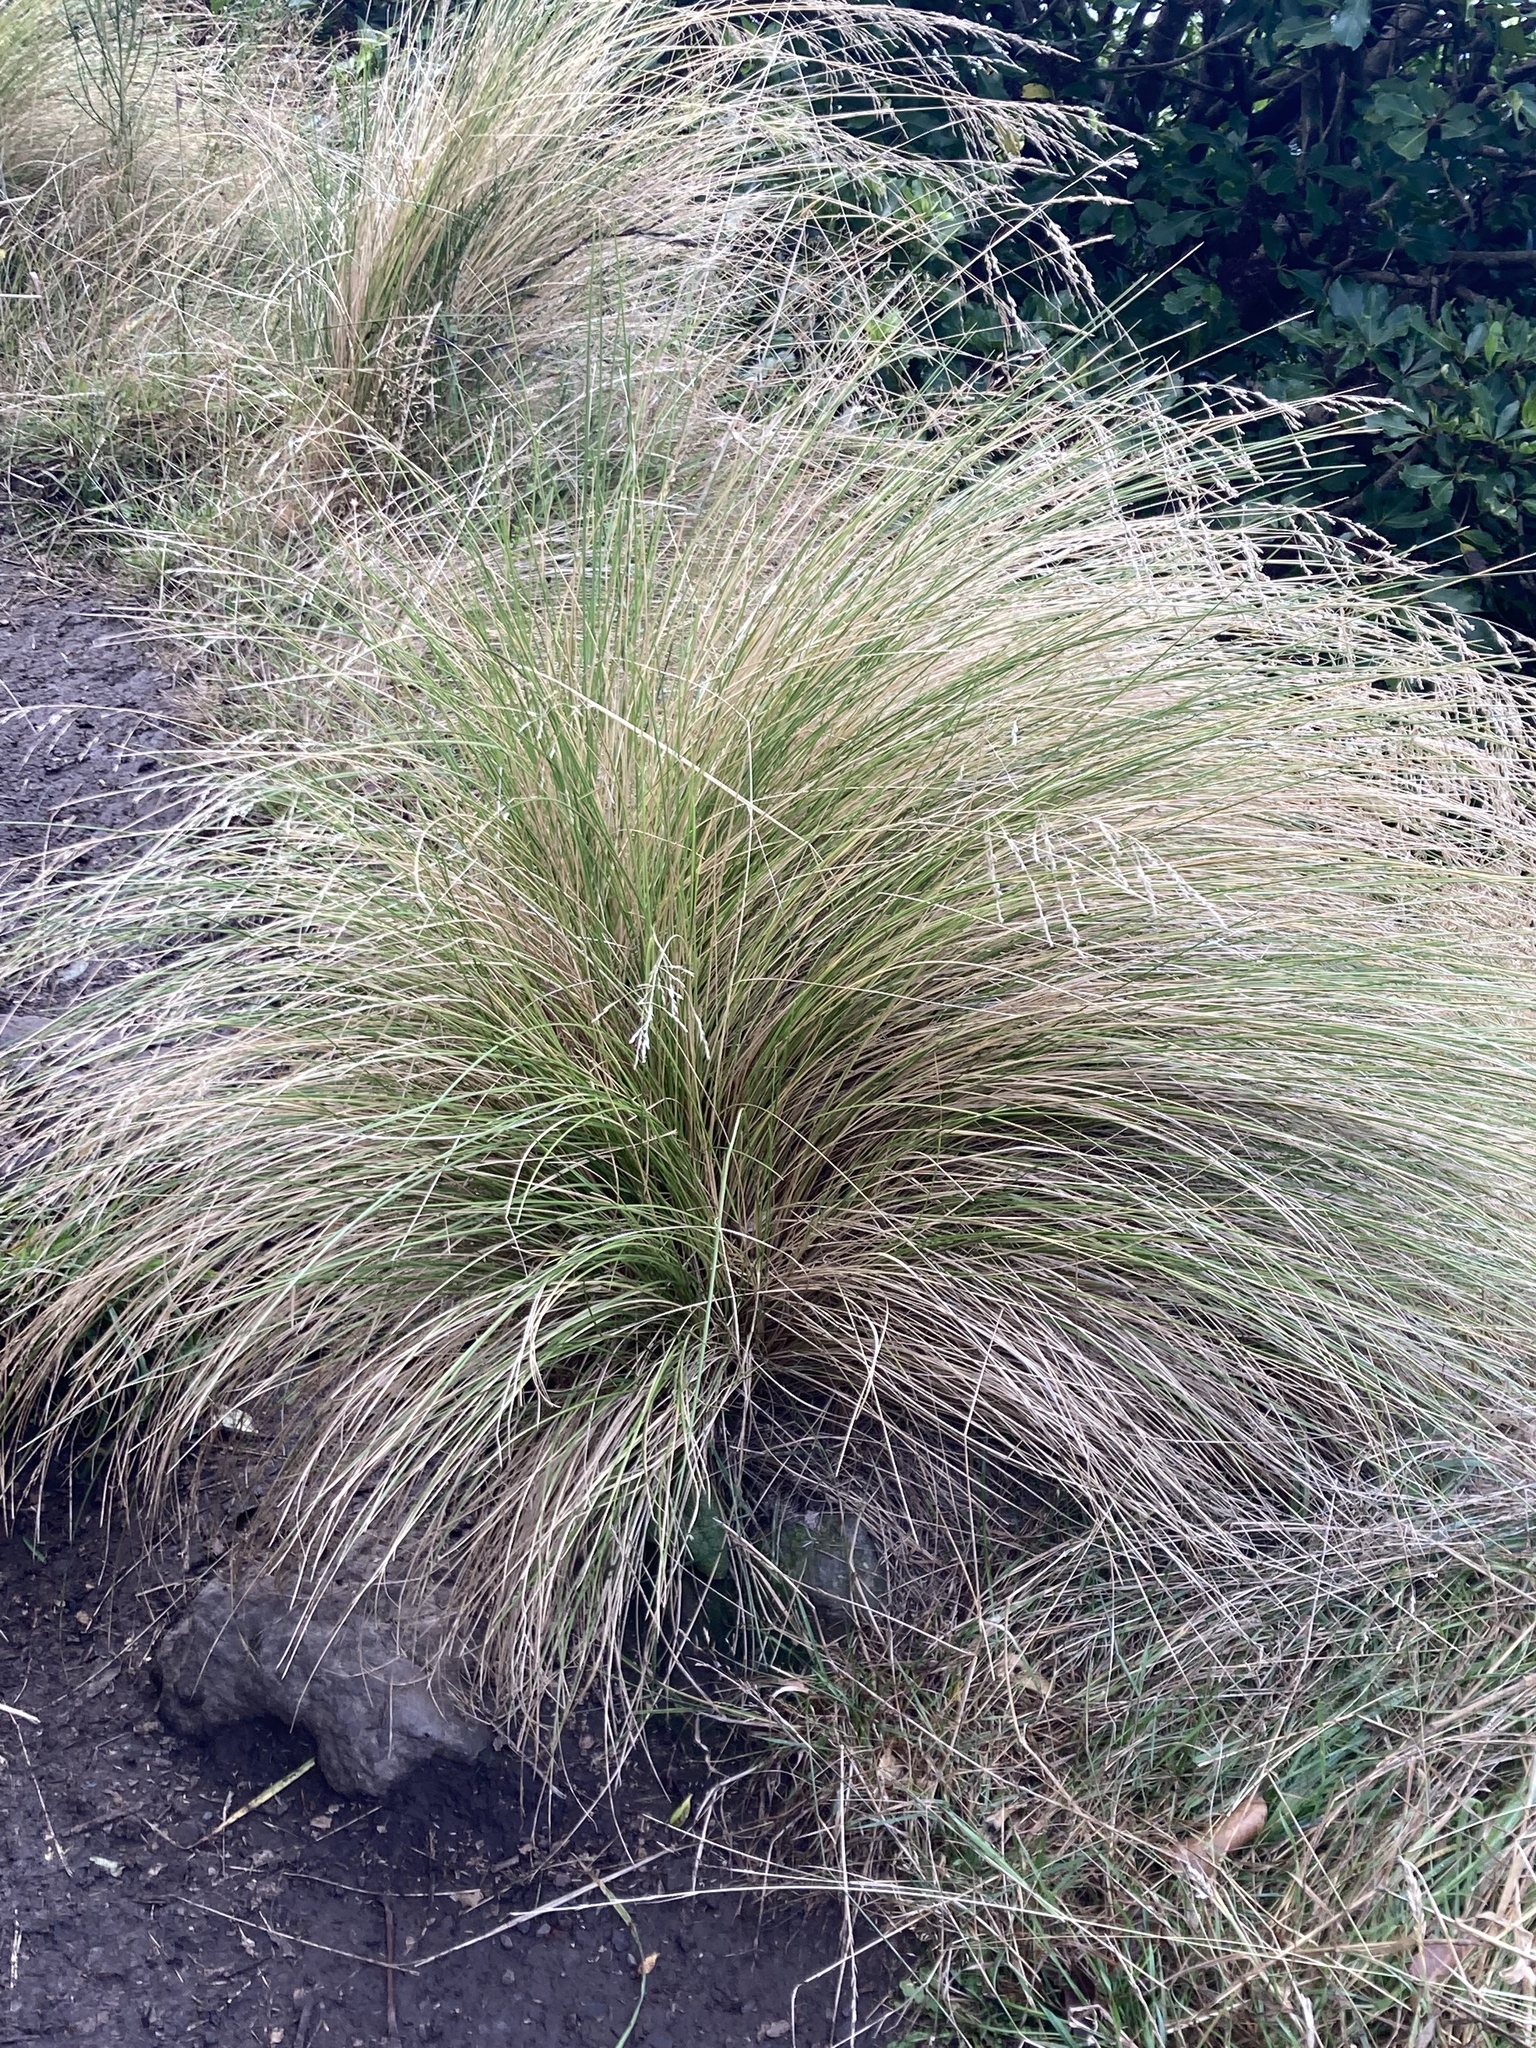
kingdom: Plantae
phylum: Tracheophyta
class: Liliopsida
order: Poales
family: Poaceae
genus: Poa
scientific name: Poa cita
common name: Silver tussock
